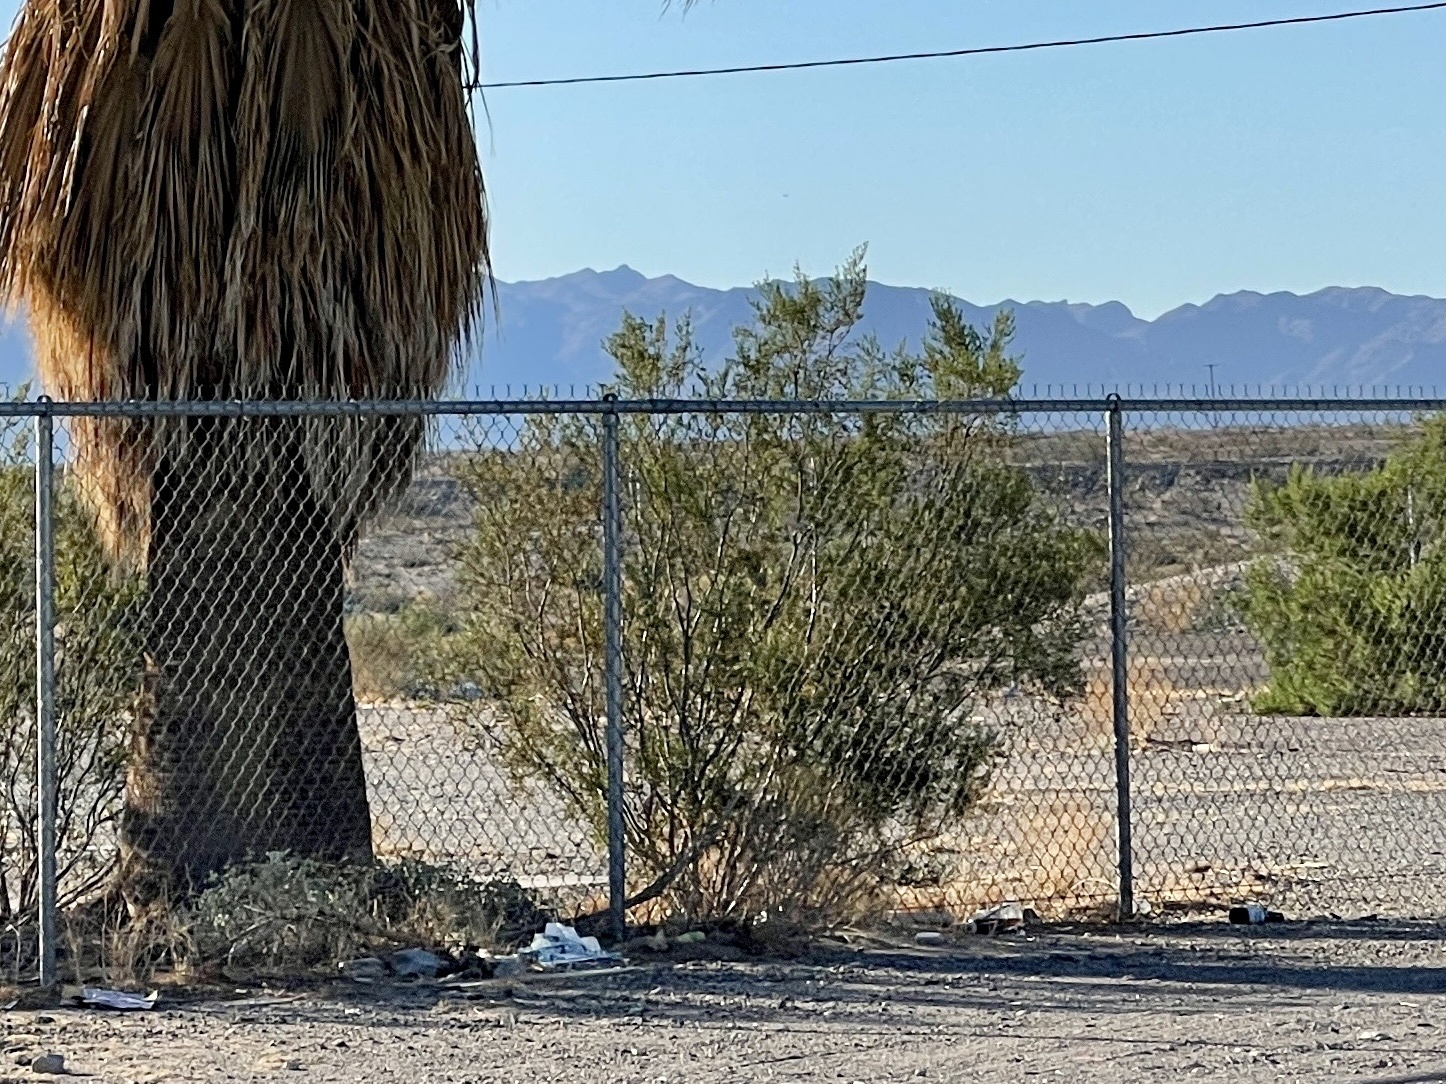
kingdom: Plantae
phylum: Tracheophyta
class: Magnoliopsida
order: Zygophyllales
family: Zygophyllaceae
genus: Larrea
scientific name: Larrea tridentata
